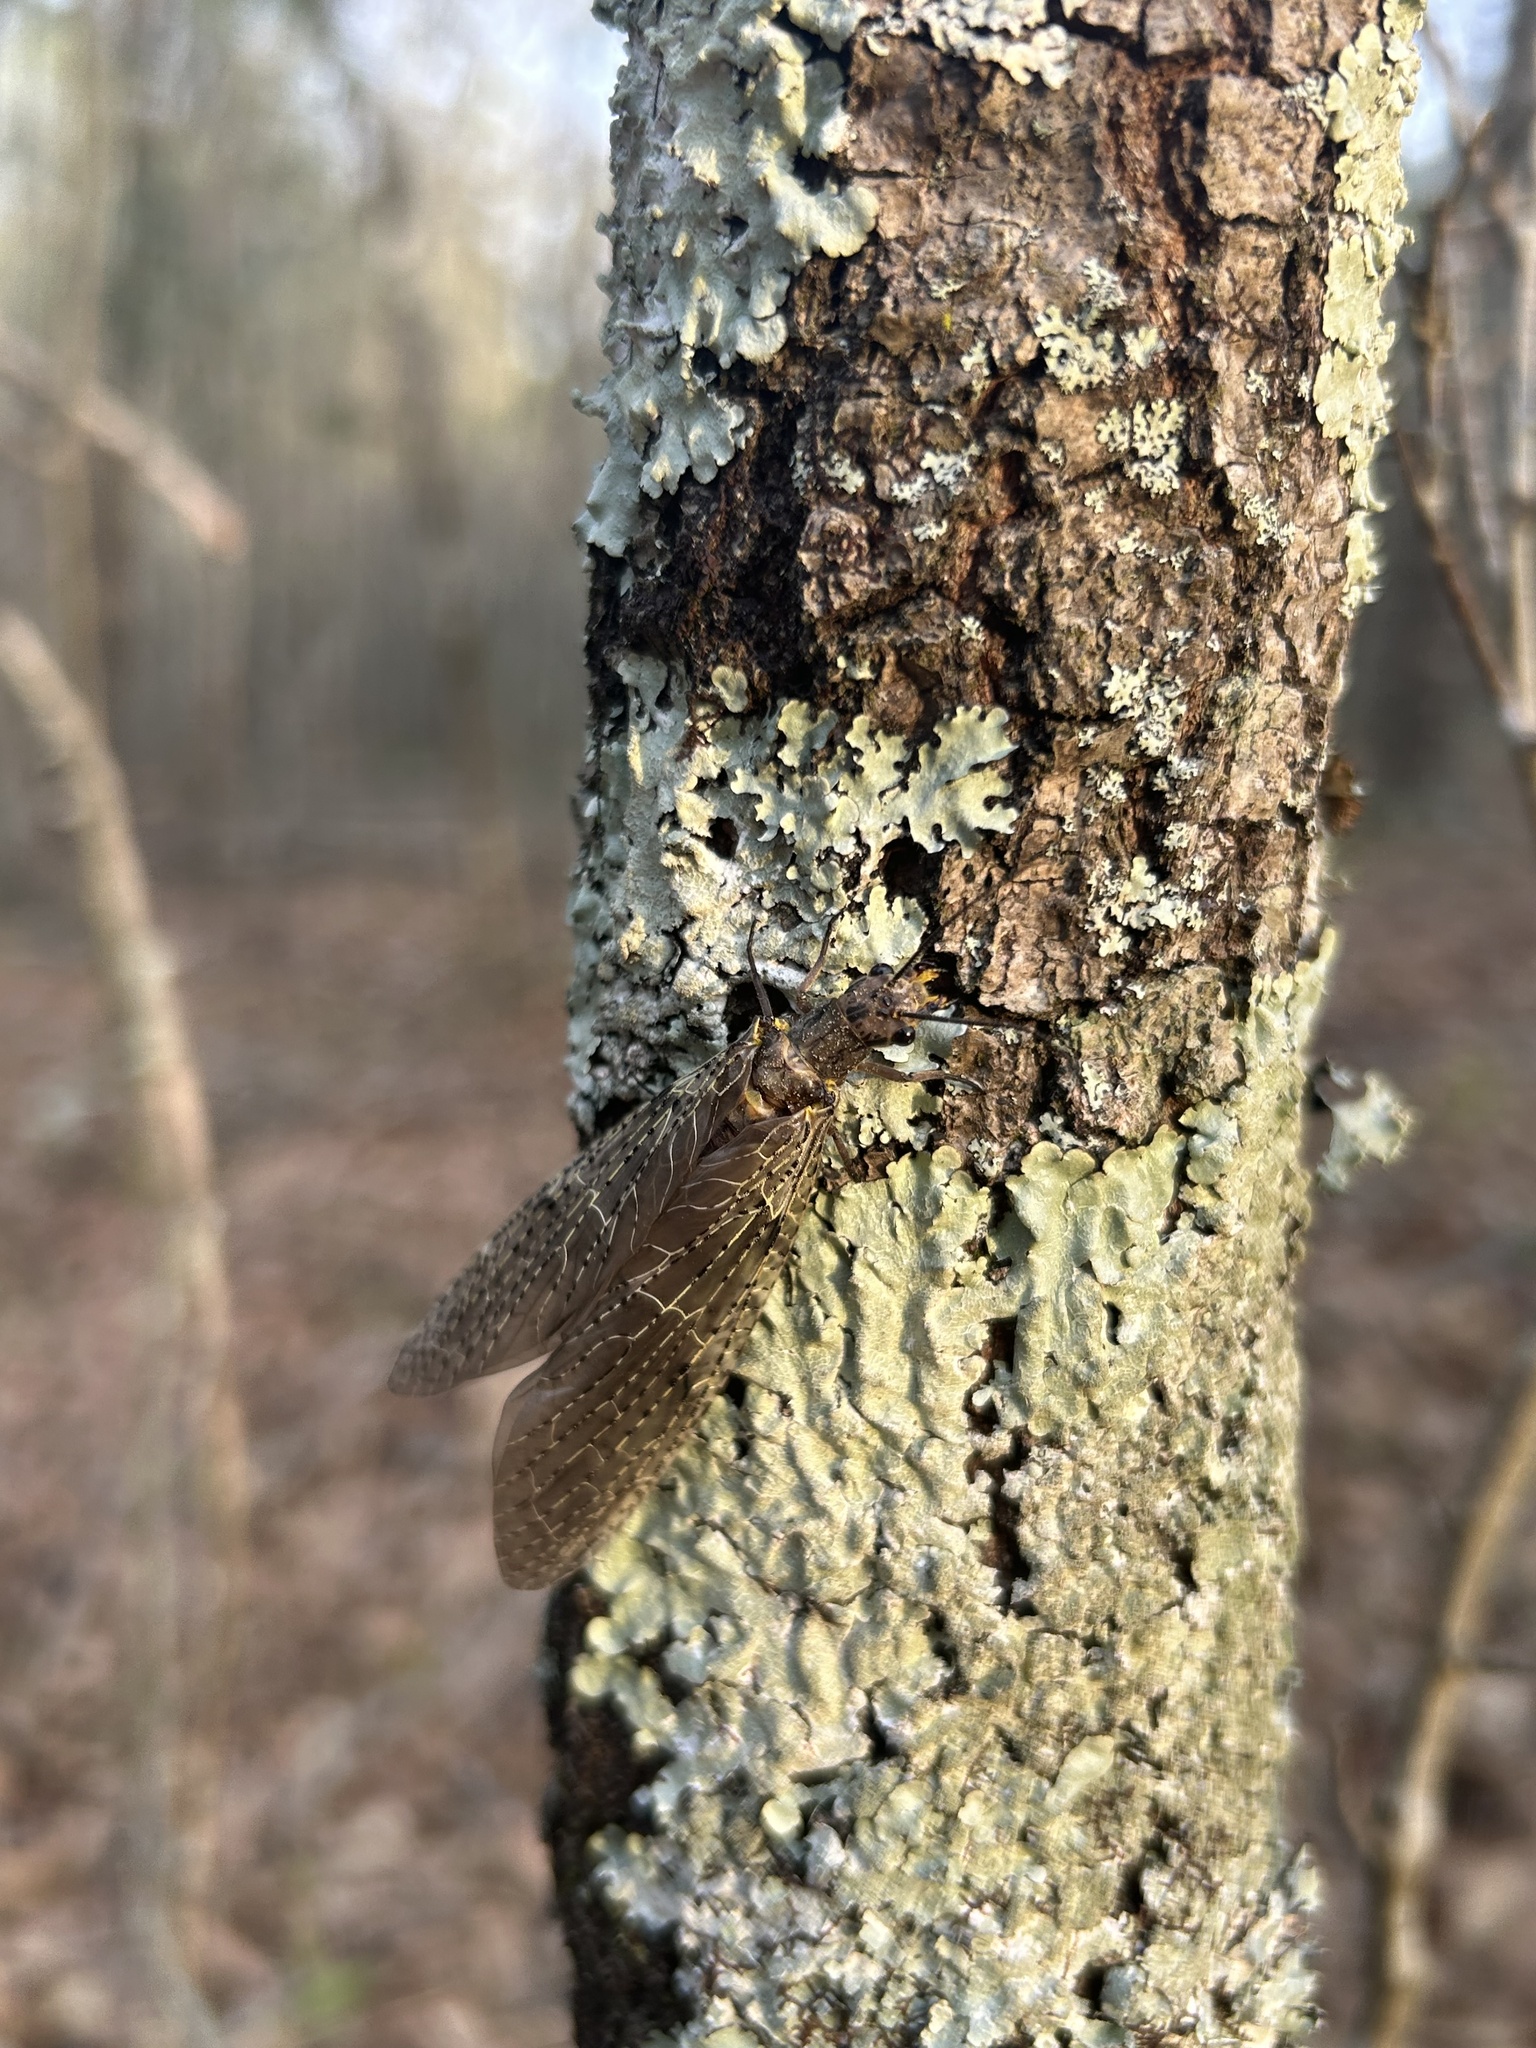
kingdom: Animalia
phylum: Arthropoda
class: Insecta
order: Megaloptera
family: Corydalidae
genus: Chauliodes
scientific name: Chauliodes rastricornis
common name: Spring fishfly
